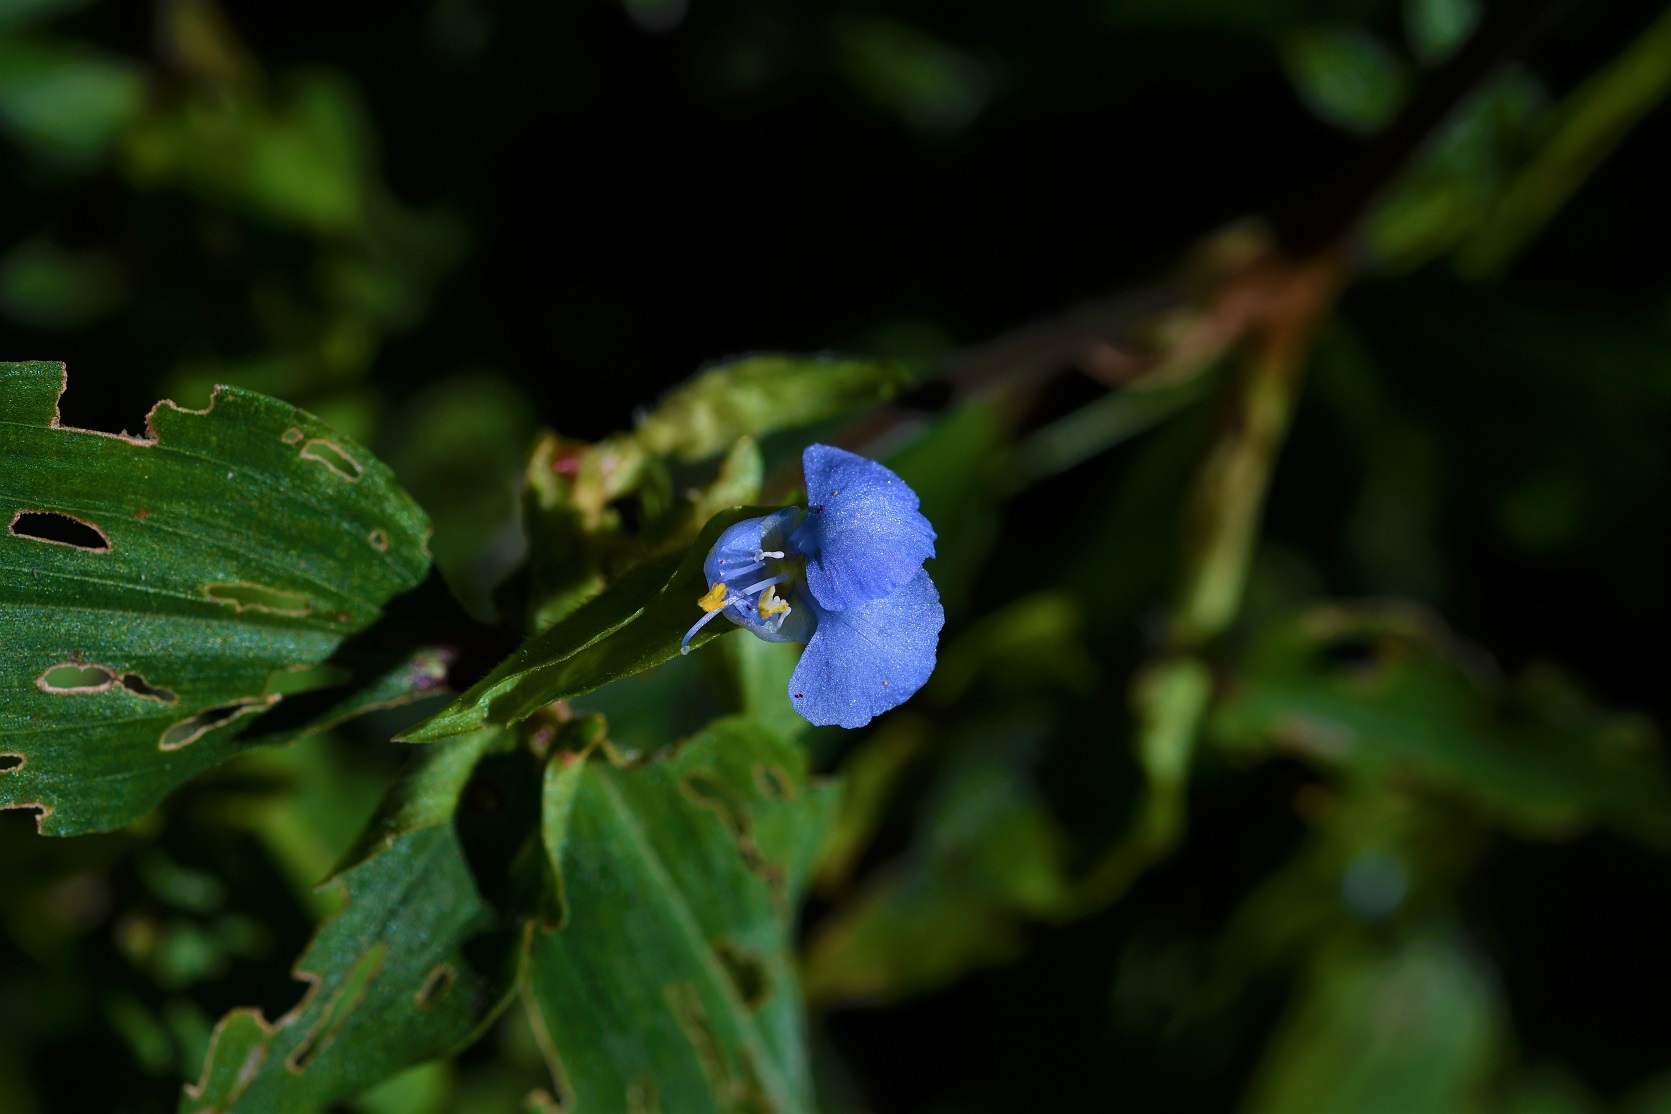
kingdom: Plantae
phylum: Tracheophyta
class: Liliopsida
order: Commelinales
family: Commelinaceae
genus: Commelina
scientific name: Commelina diffusa
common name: Climbing dayflower
